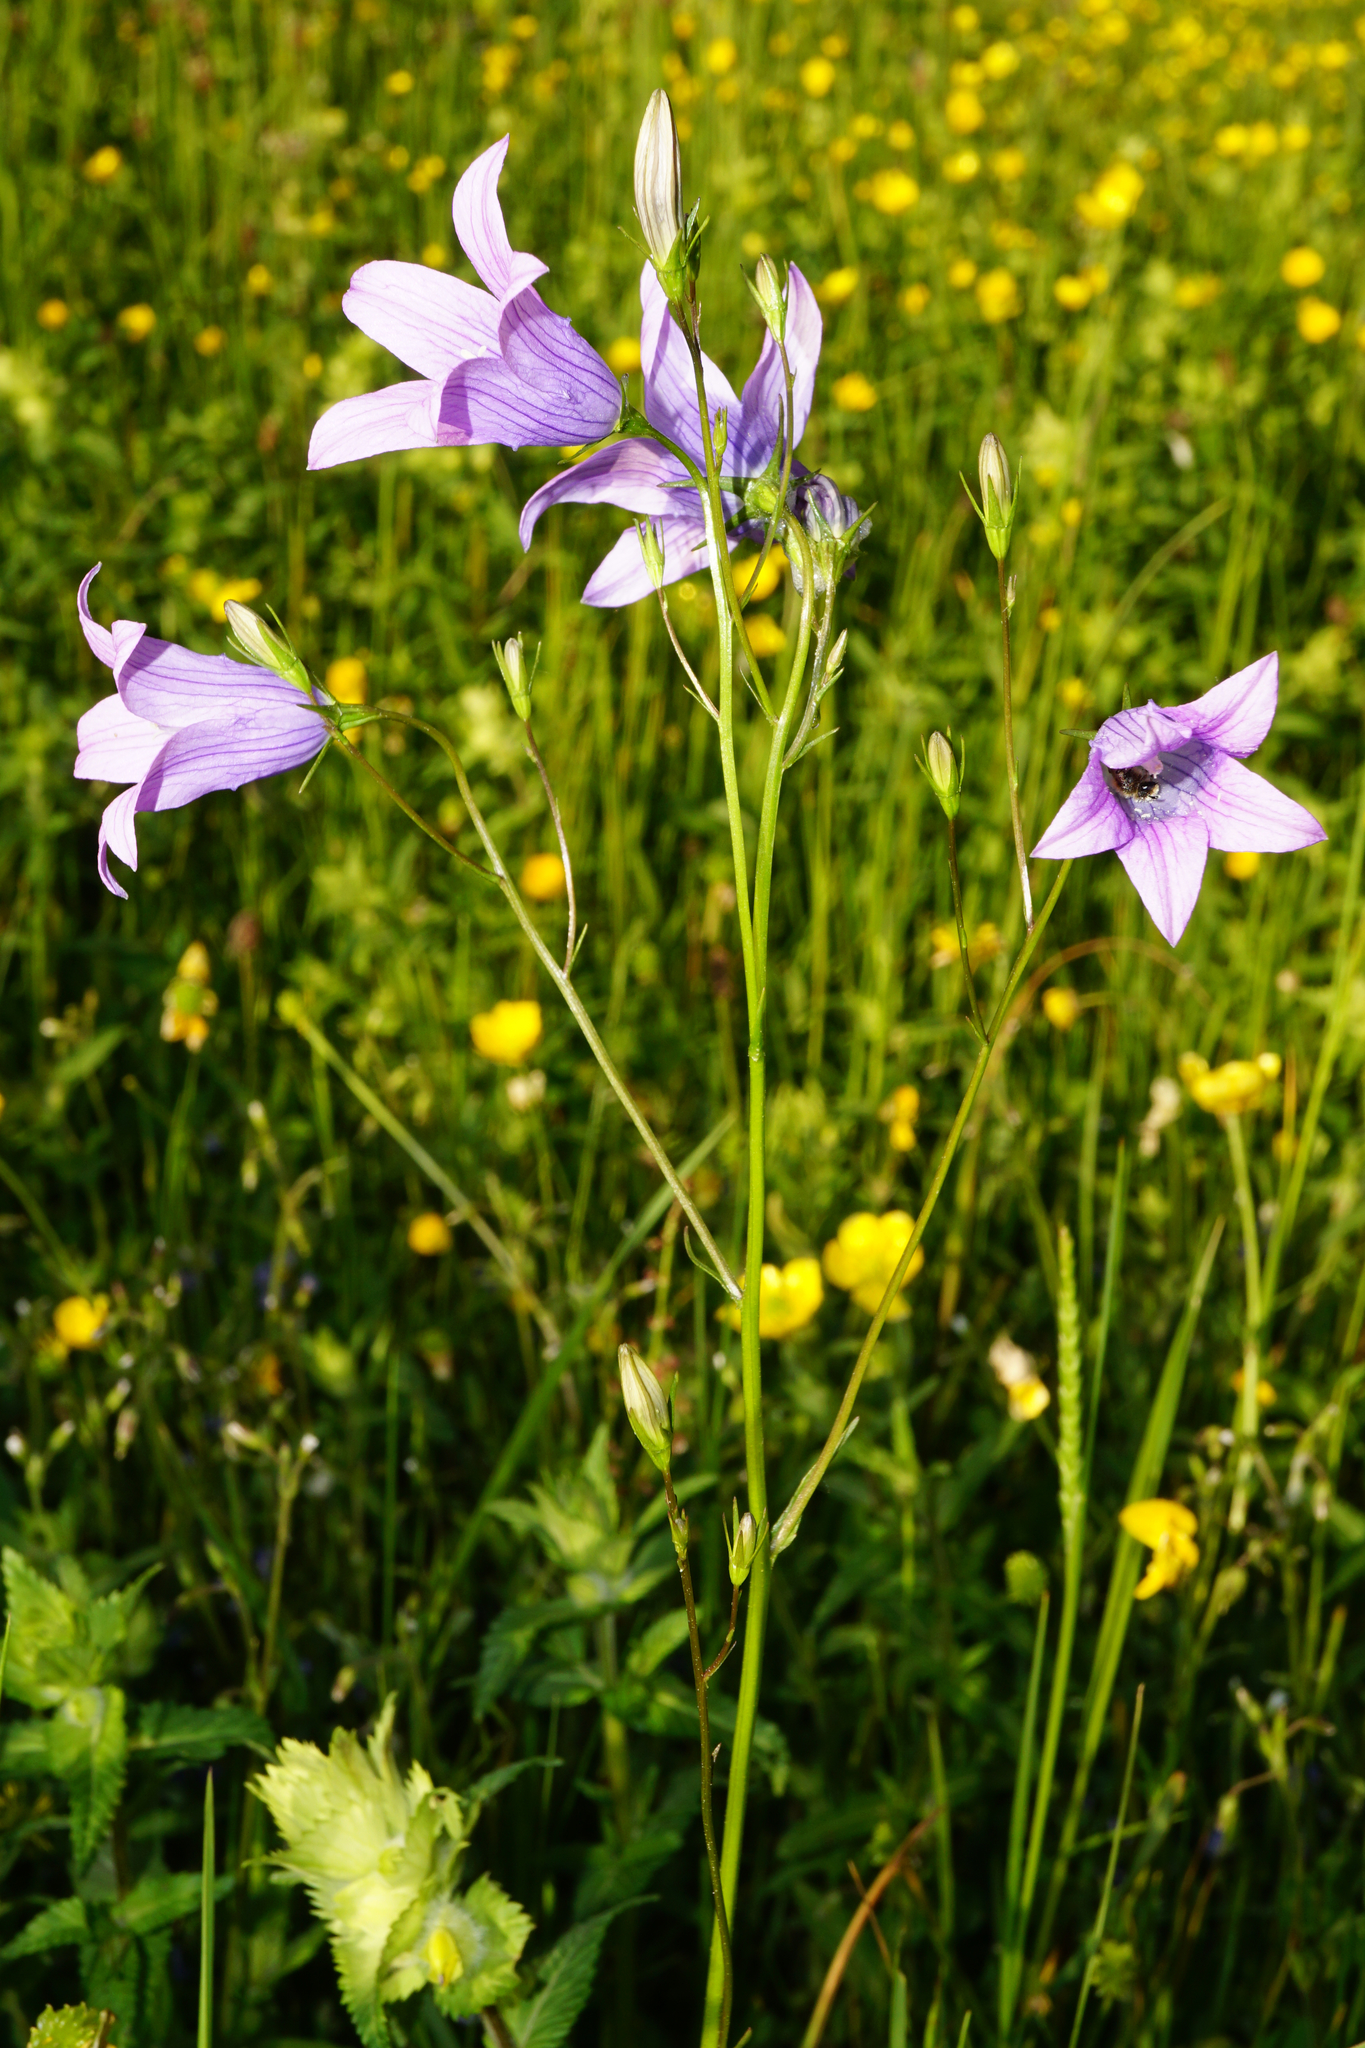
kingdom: Plantae
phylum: Tracheophyta
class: Magnoliopsida
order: Asterales
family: Campanulaceae
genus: Campanula
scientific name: Campanula patula
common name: Spreading bellflower
